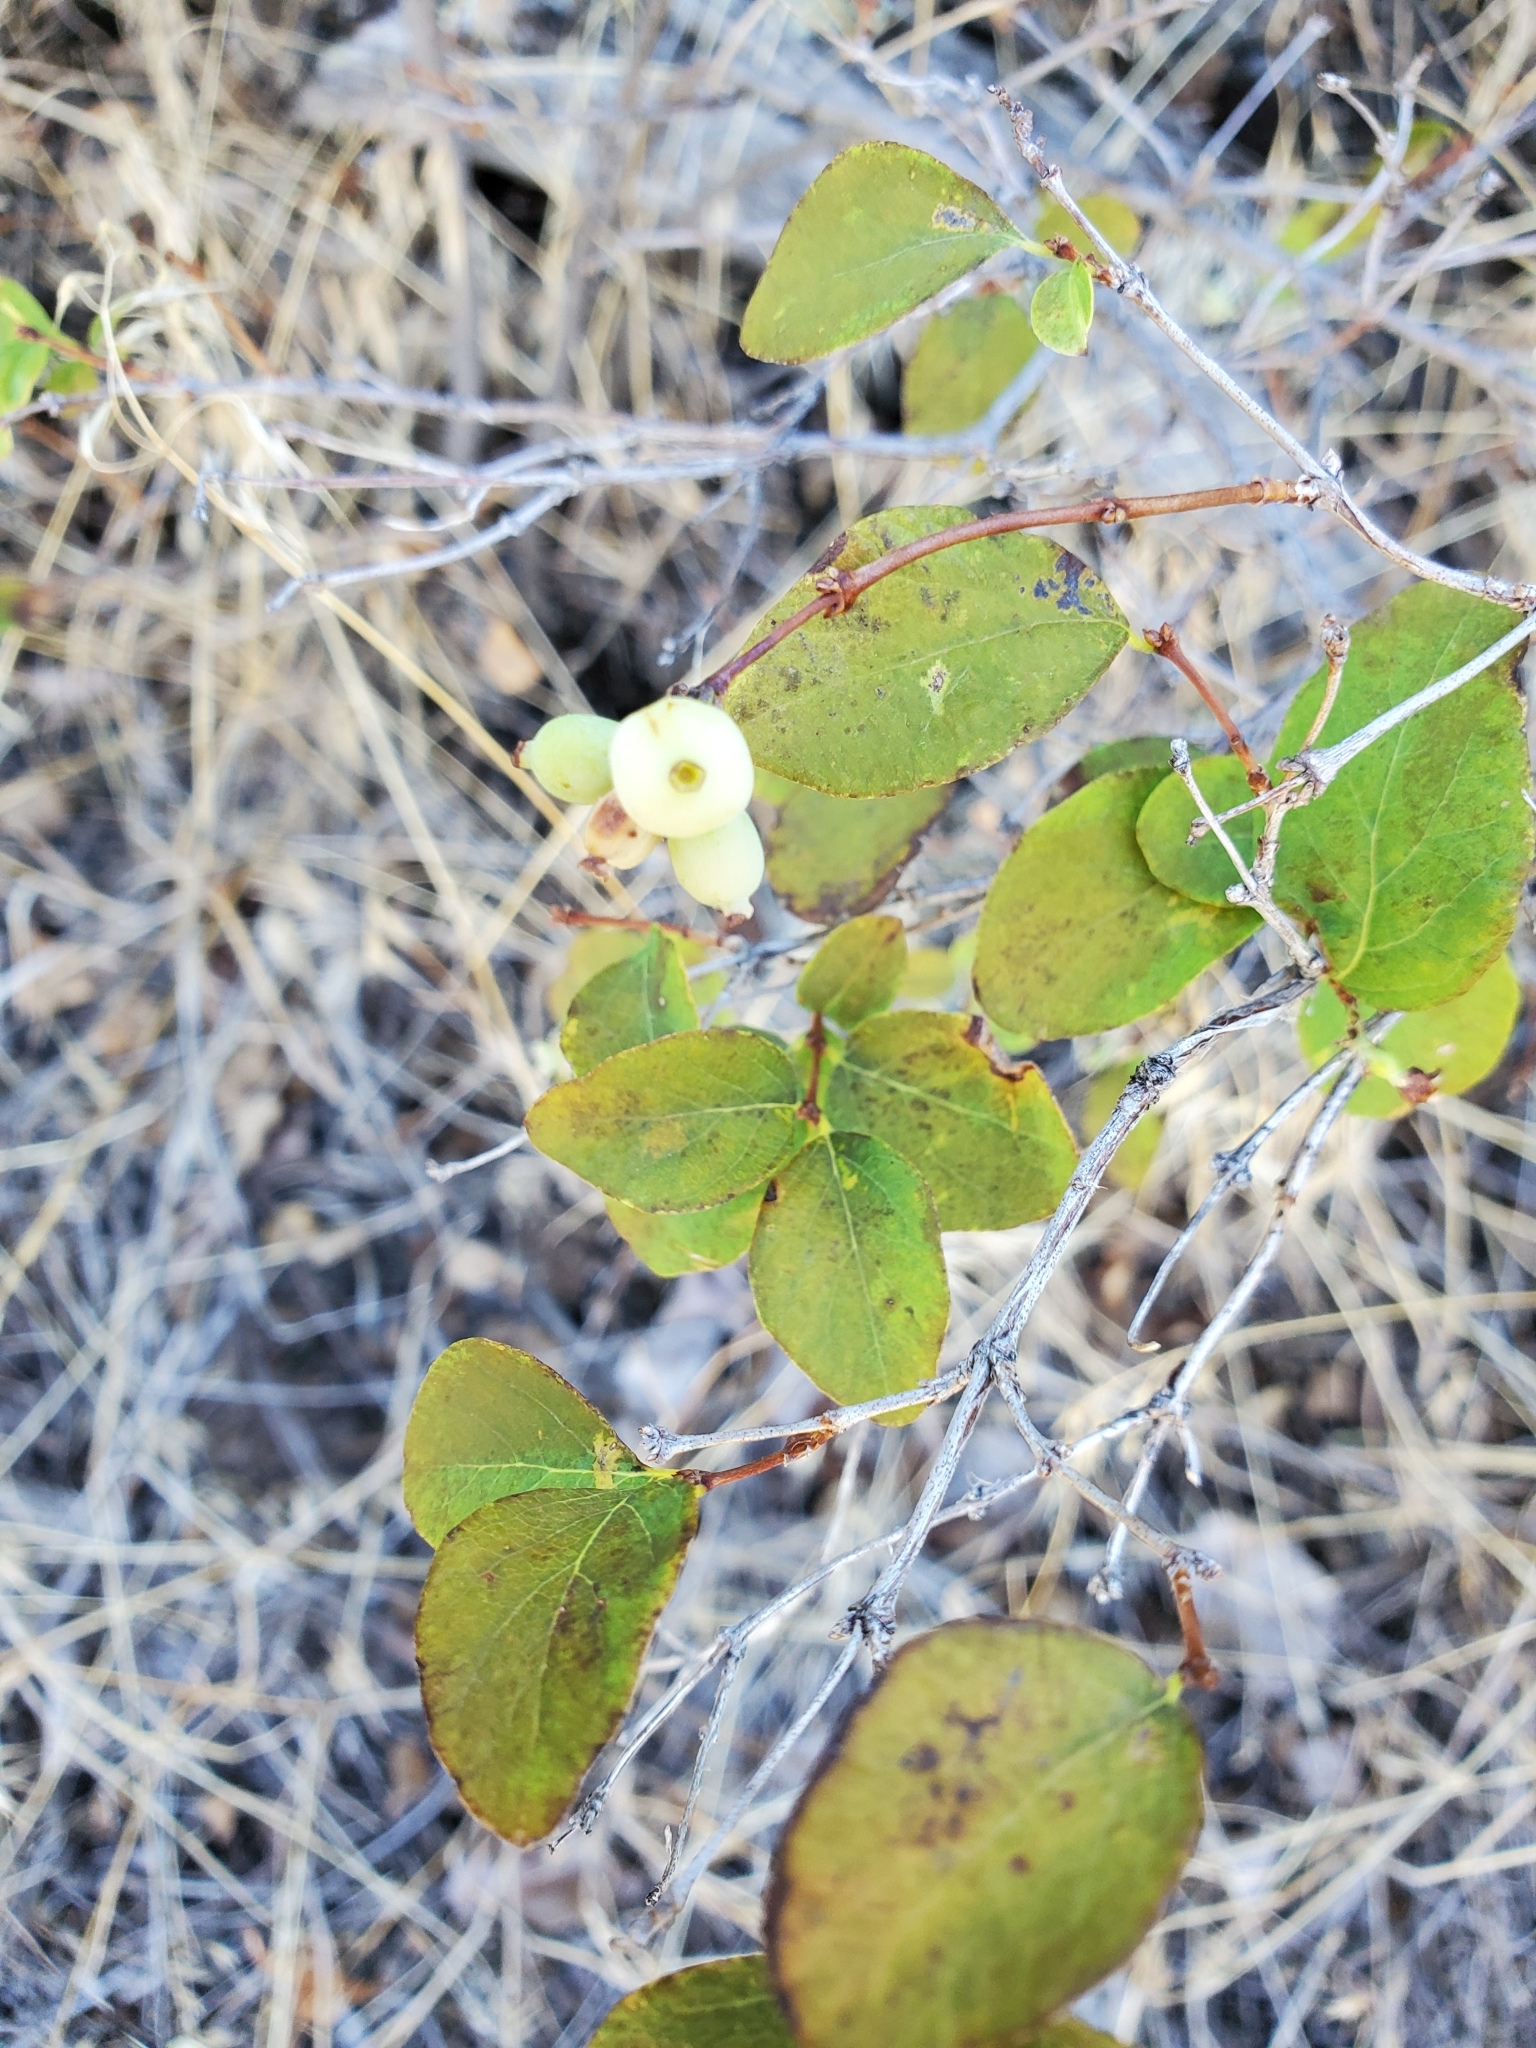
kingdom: Plantae
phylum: Tracheophyta
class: Magnoliopsida
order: Dipsacales
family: Caprifoliaceae
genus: Symphoricarpos
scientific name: Symphoricarpos albus
